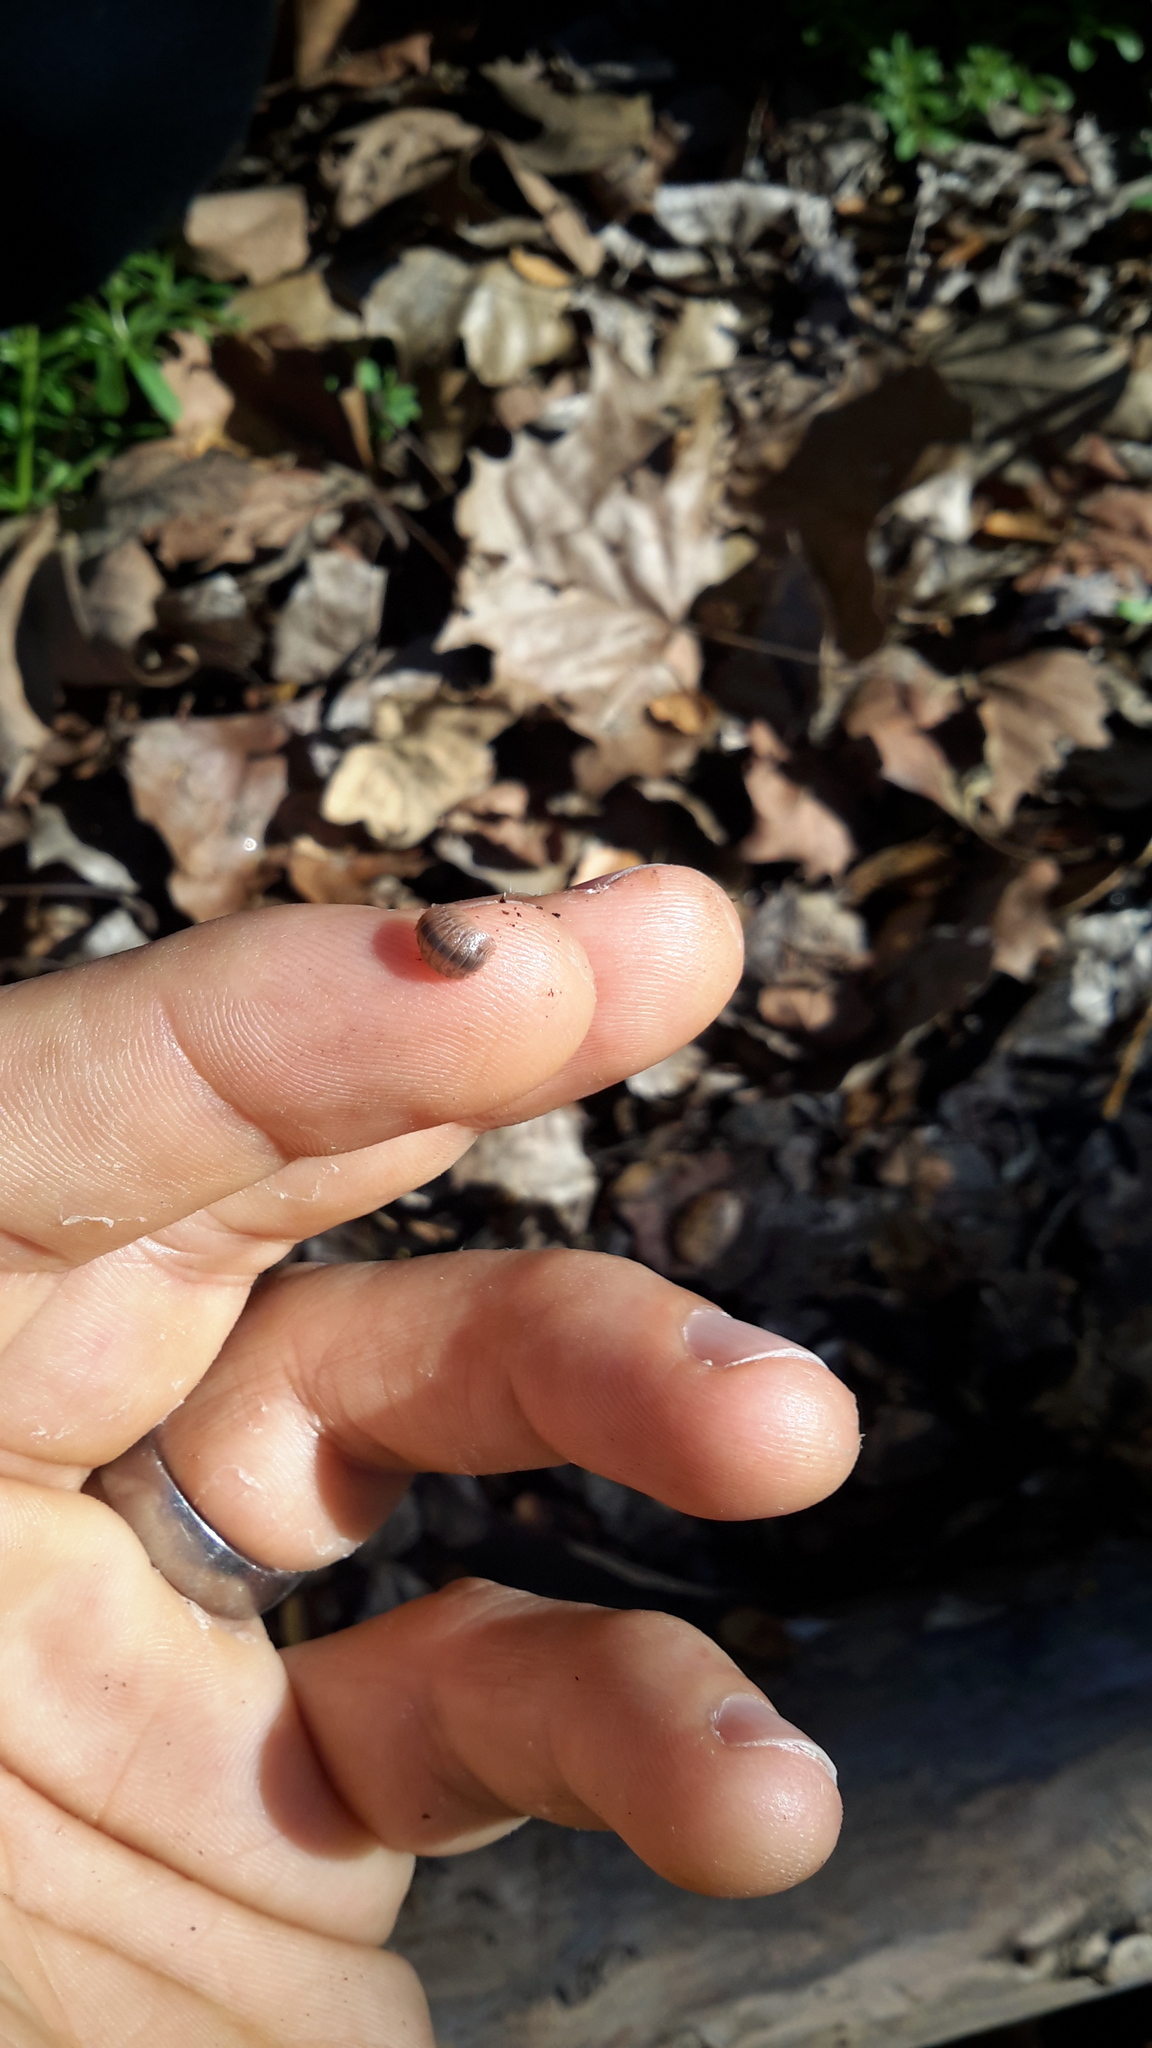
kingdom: Animalia
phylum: Arthropoda
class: Malacostraca
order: Isopoda
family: Porcellionidae
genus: Porcellio
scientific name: Porcellio dilatatus
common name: Isopod
